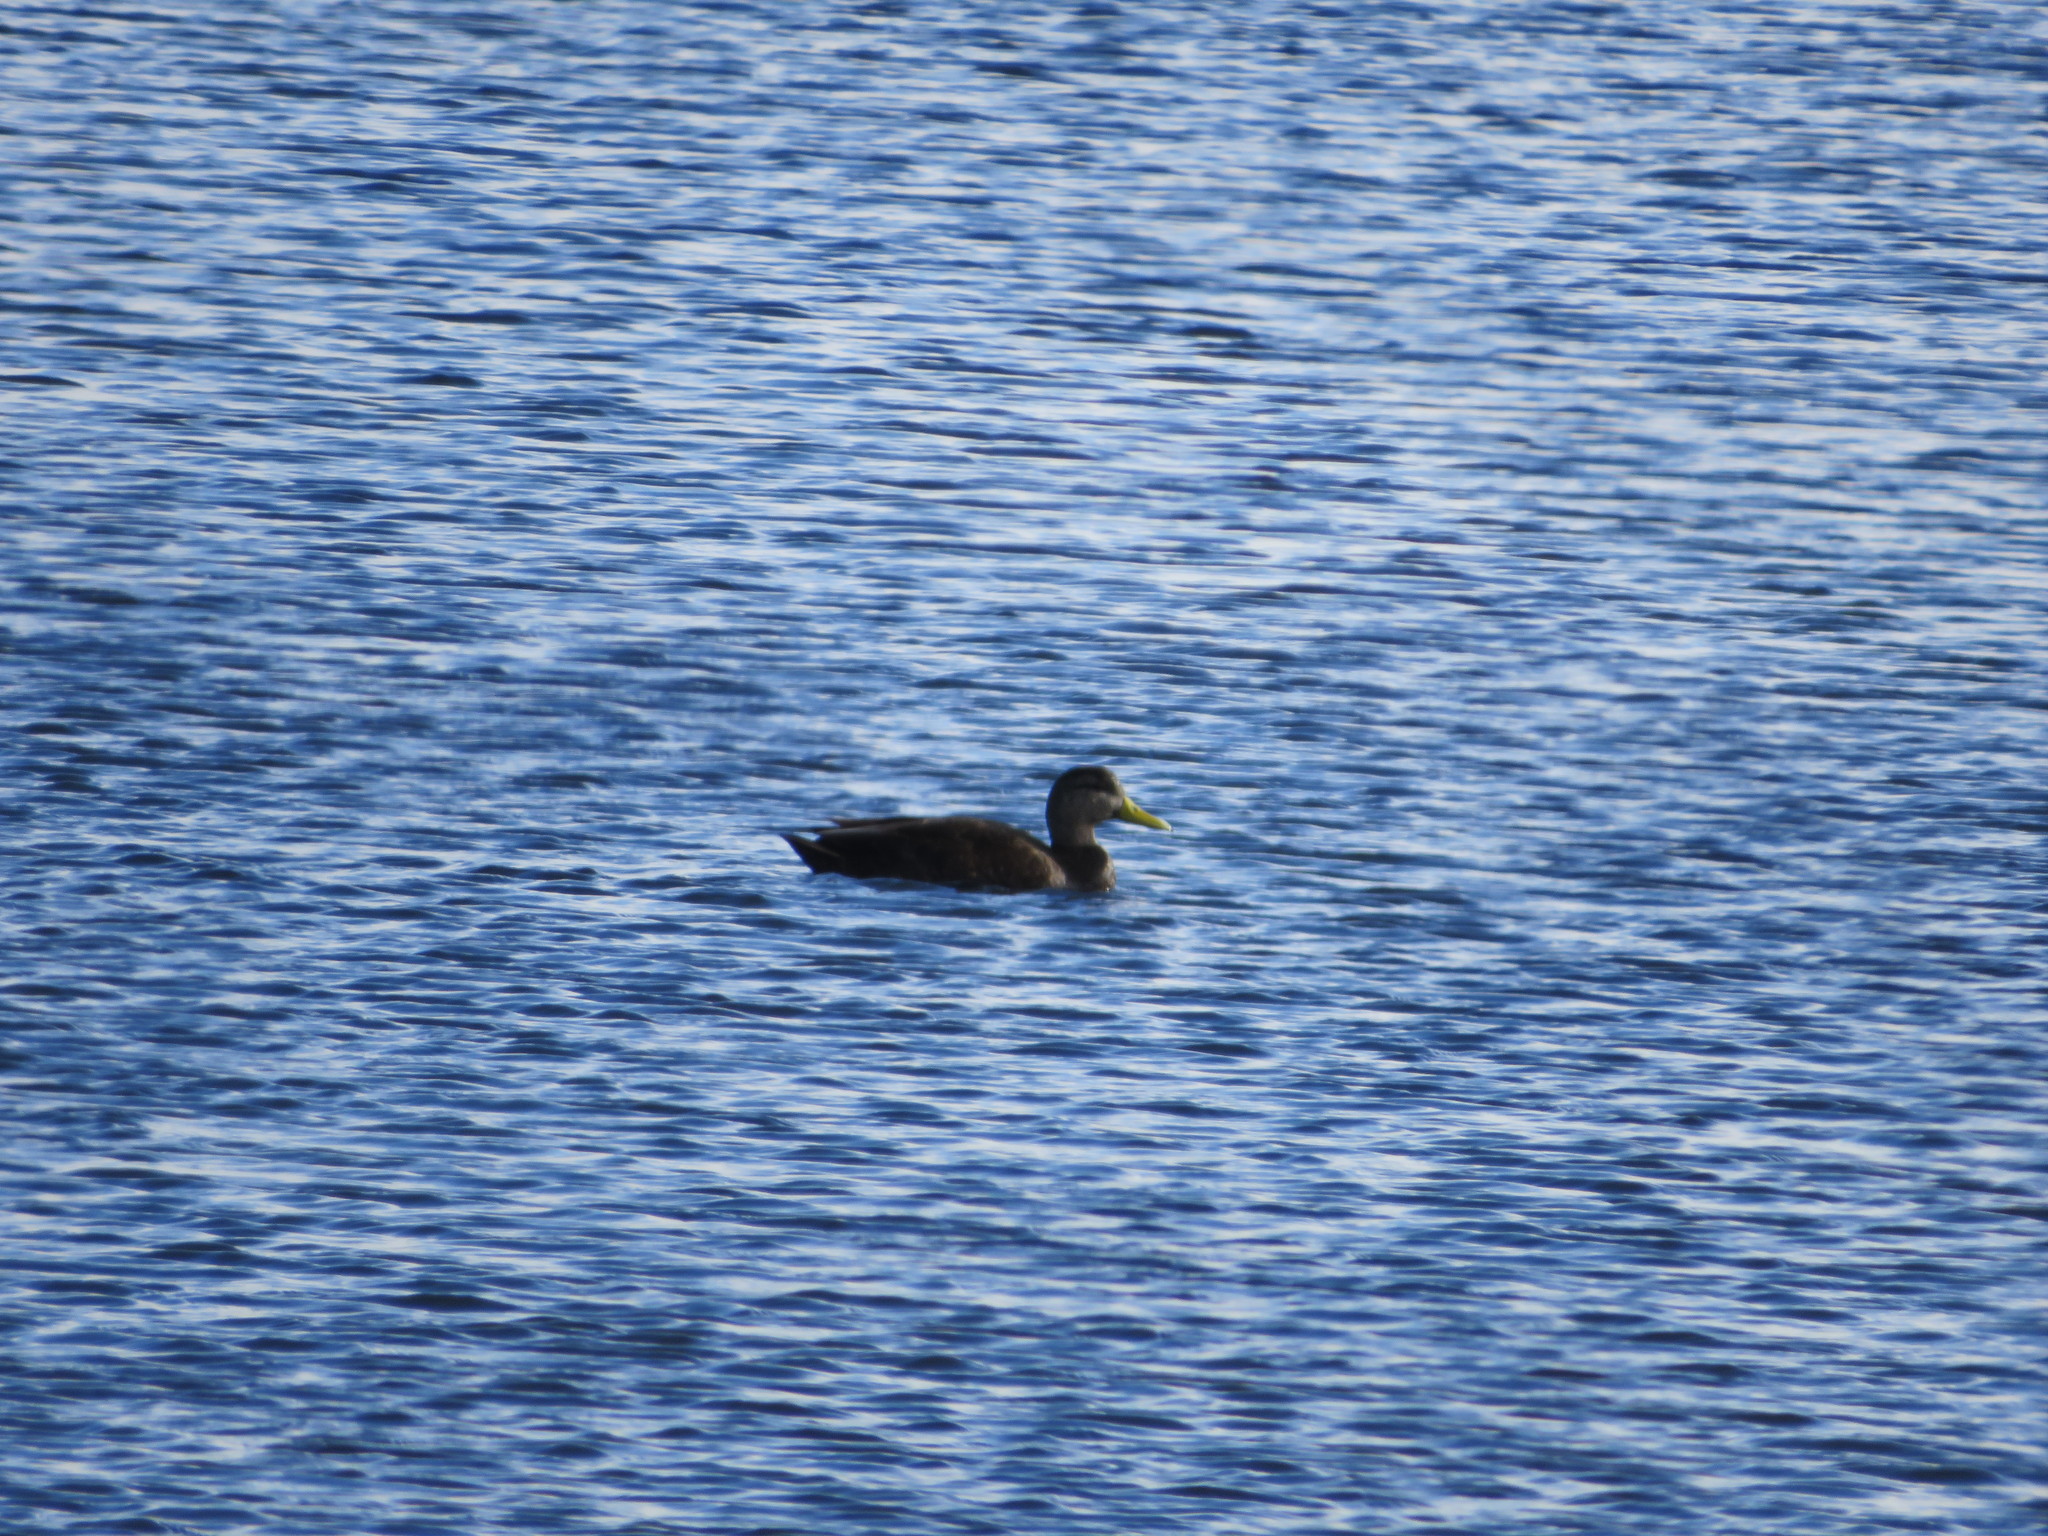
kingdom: Animalia
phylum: Chordata
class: Aves
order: Anseriformes
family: Anatidae
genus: Anas
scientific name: Anas rubripes
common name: American black duck
